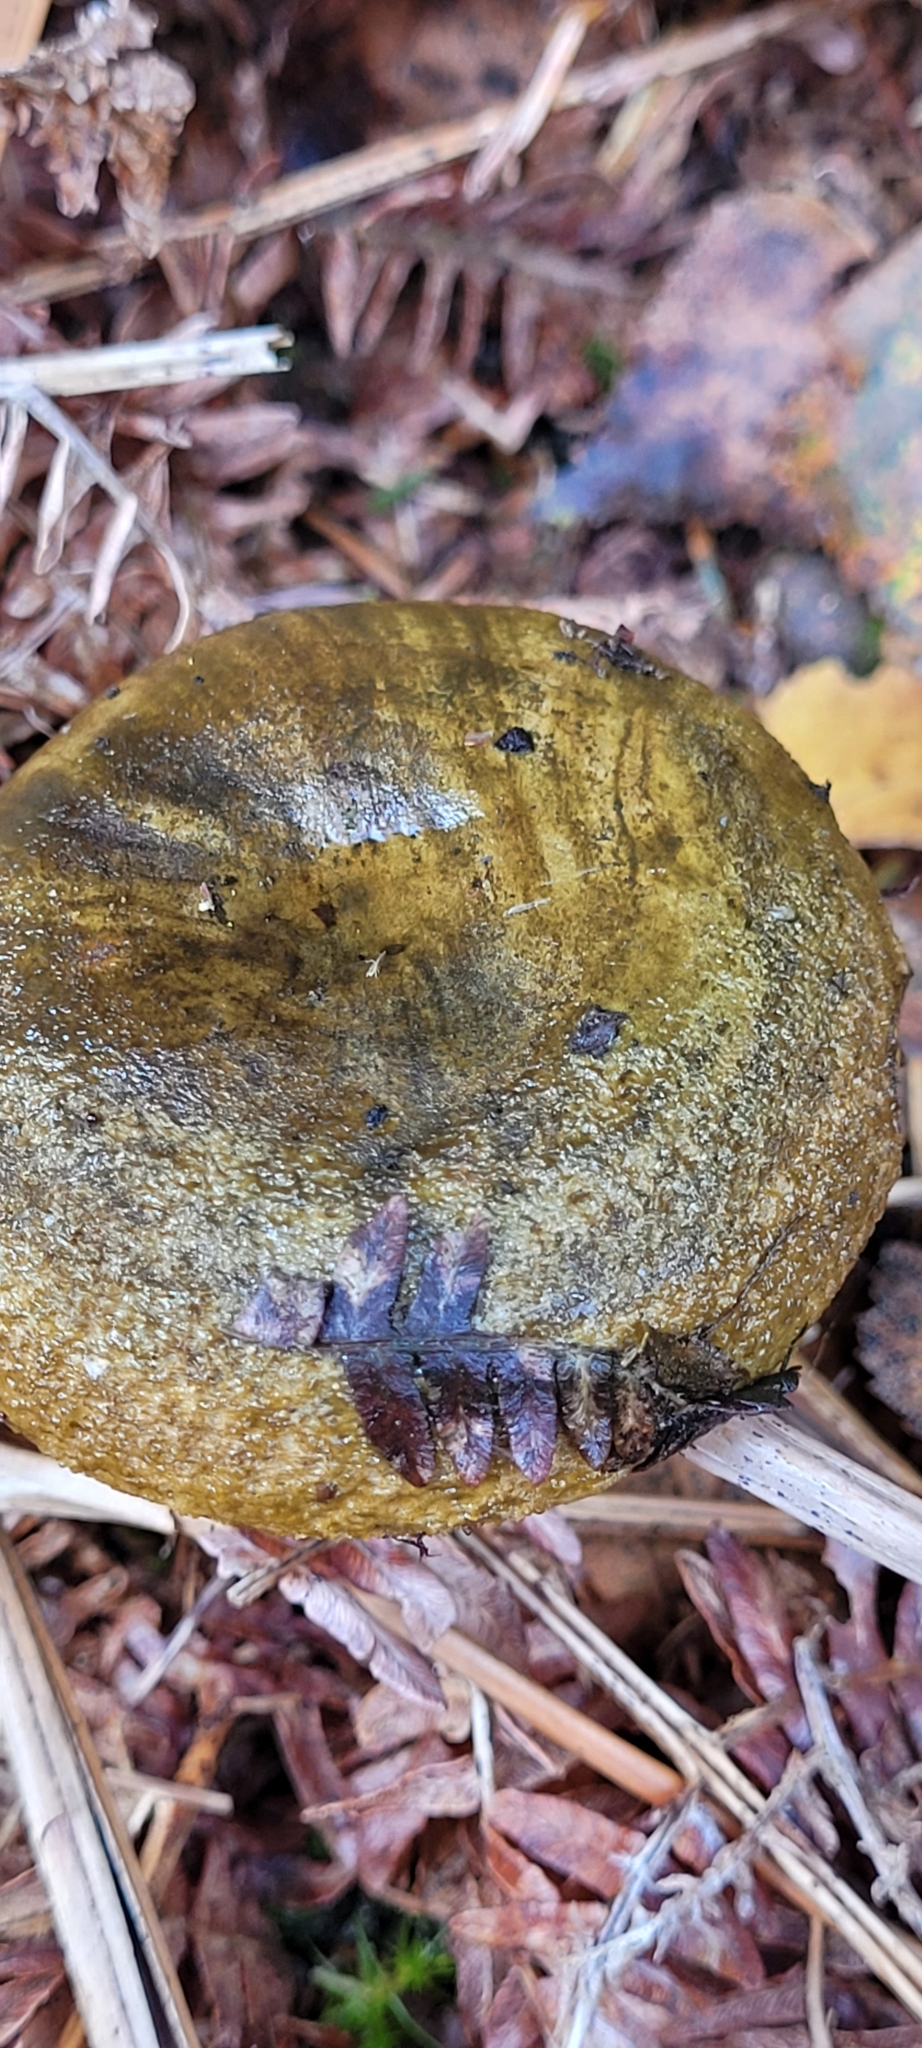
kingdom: Fungi
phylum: Basidiomycota
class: Agaricomycetes
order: Russulales
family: Russulaceae
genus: Lactarius
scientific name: Lactarius turpis
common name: Ugly milk-cap
